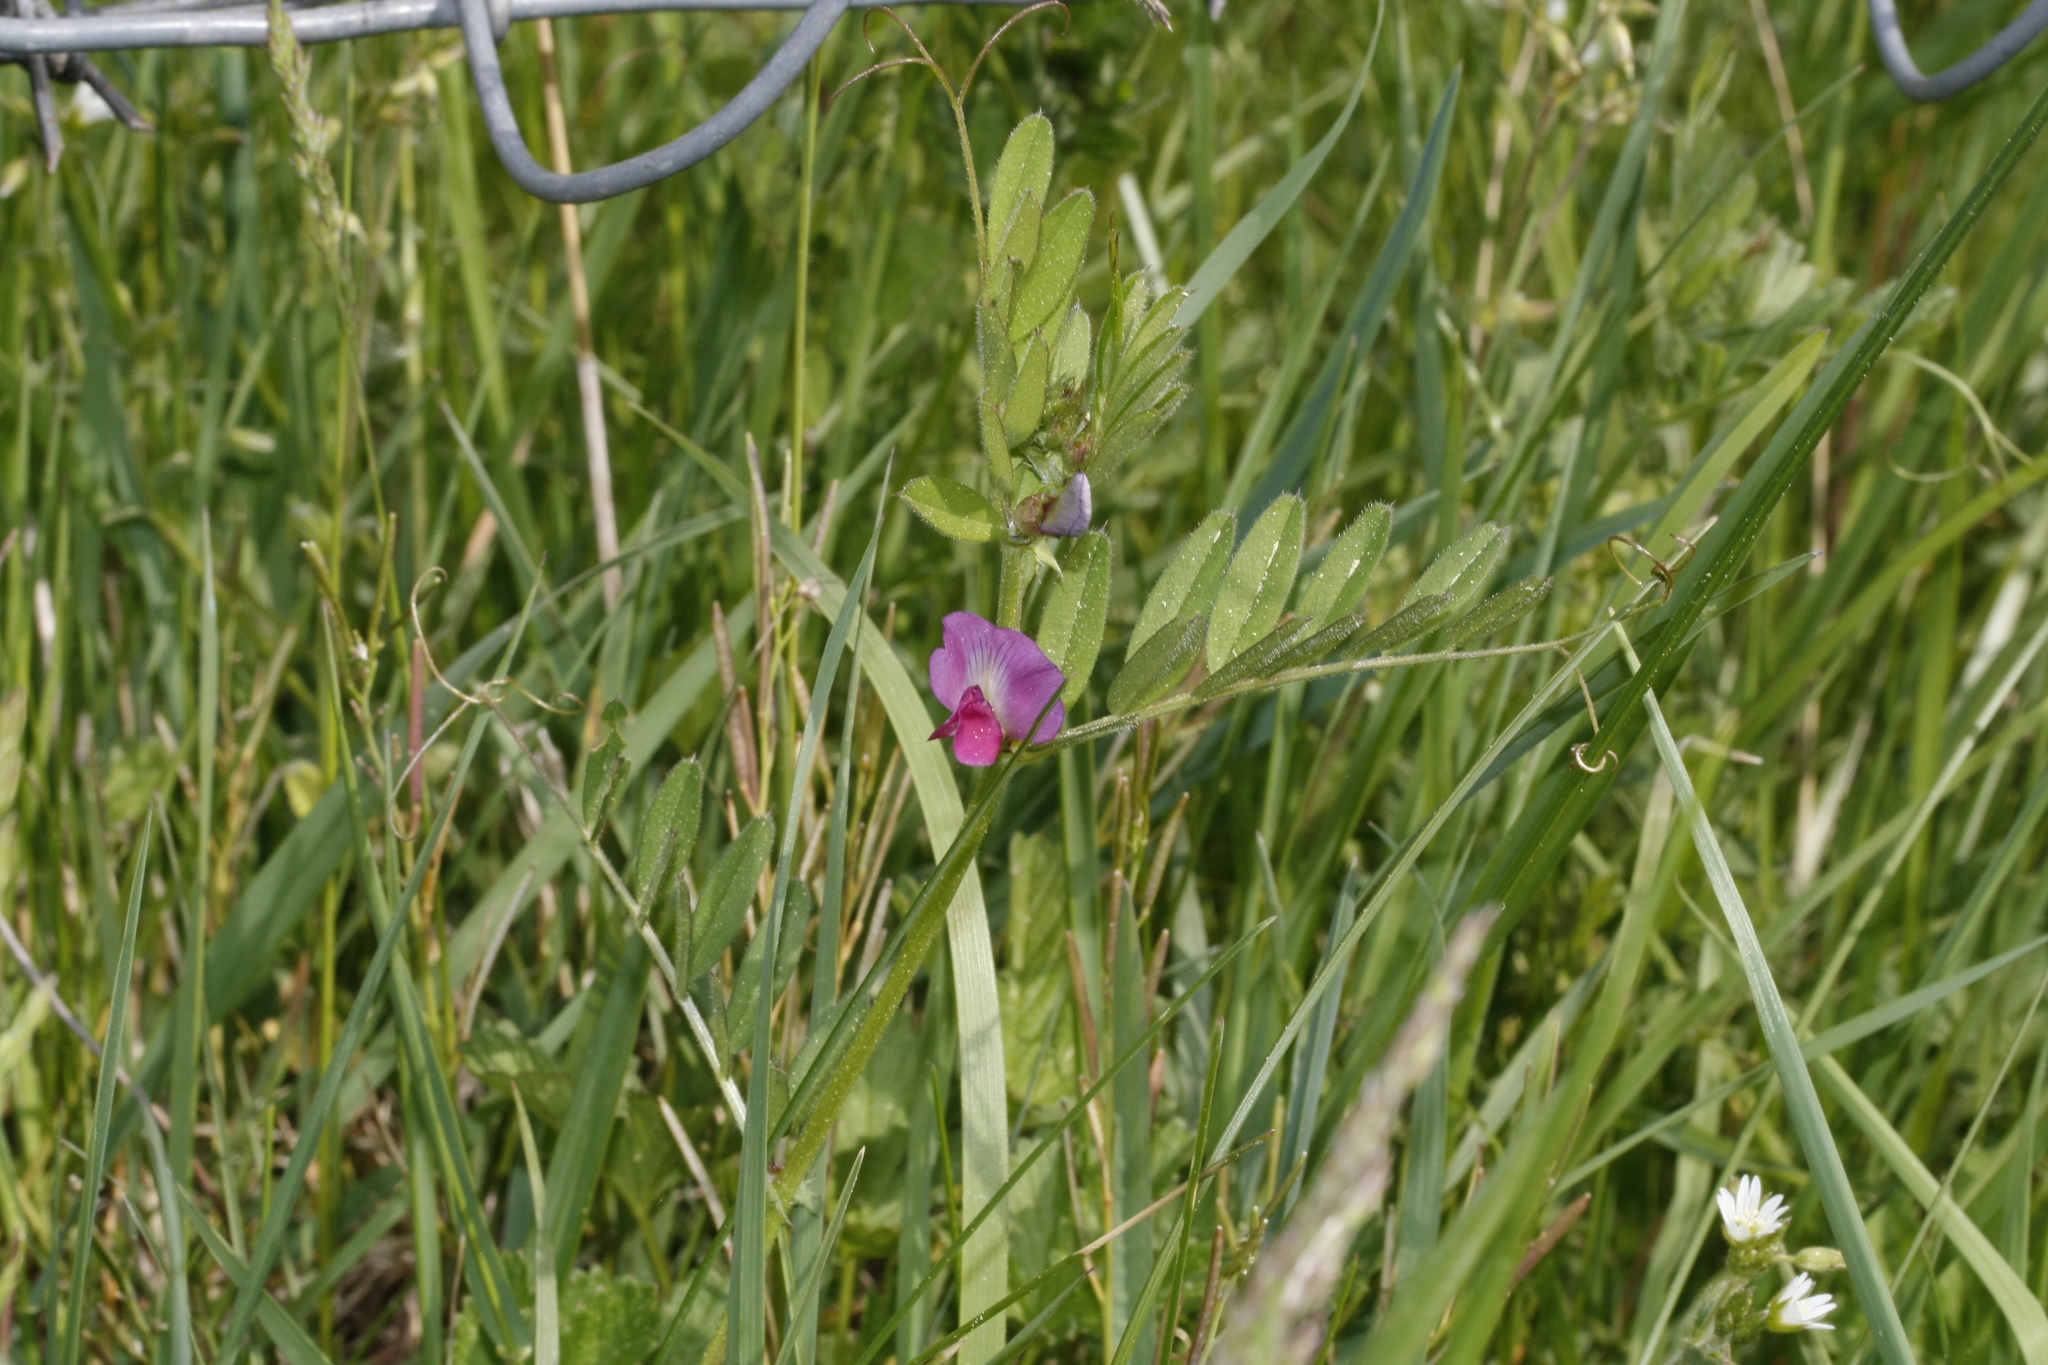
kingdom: Plantae
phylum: Tracheophyta
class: Magnoliopsida
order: Fabales
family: Fabaceae
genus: Vicia
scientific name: Vicia sativa
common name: Garden vetch
